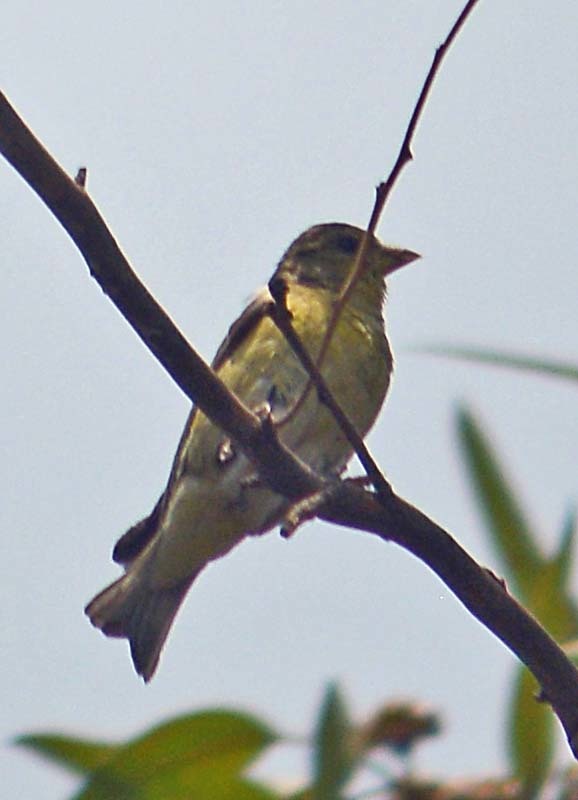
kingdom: Animalia
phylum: Chordata
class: Aves
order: Passeriformes
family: Fringillidae
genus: Spinus
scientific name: Spinus psaltria
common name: Lesser goldfinch
